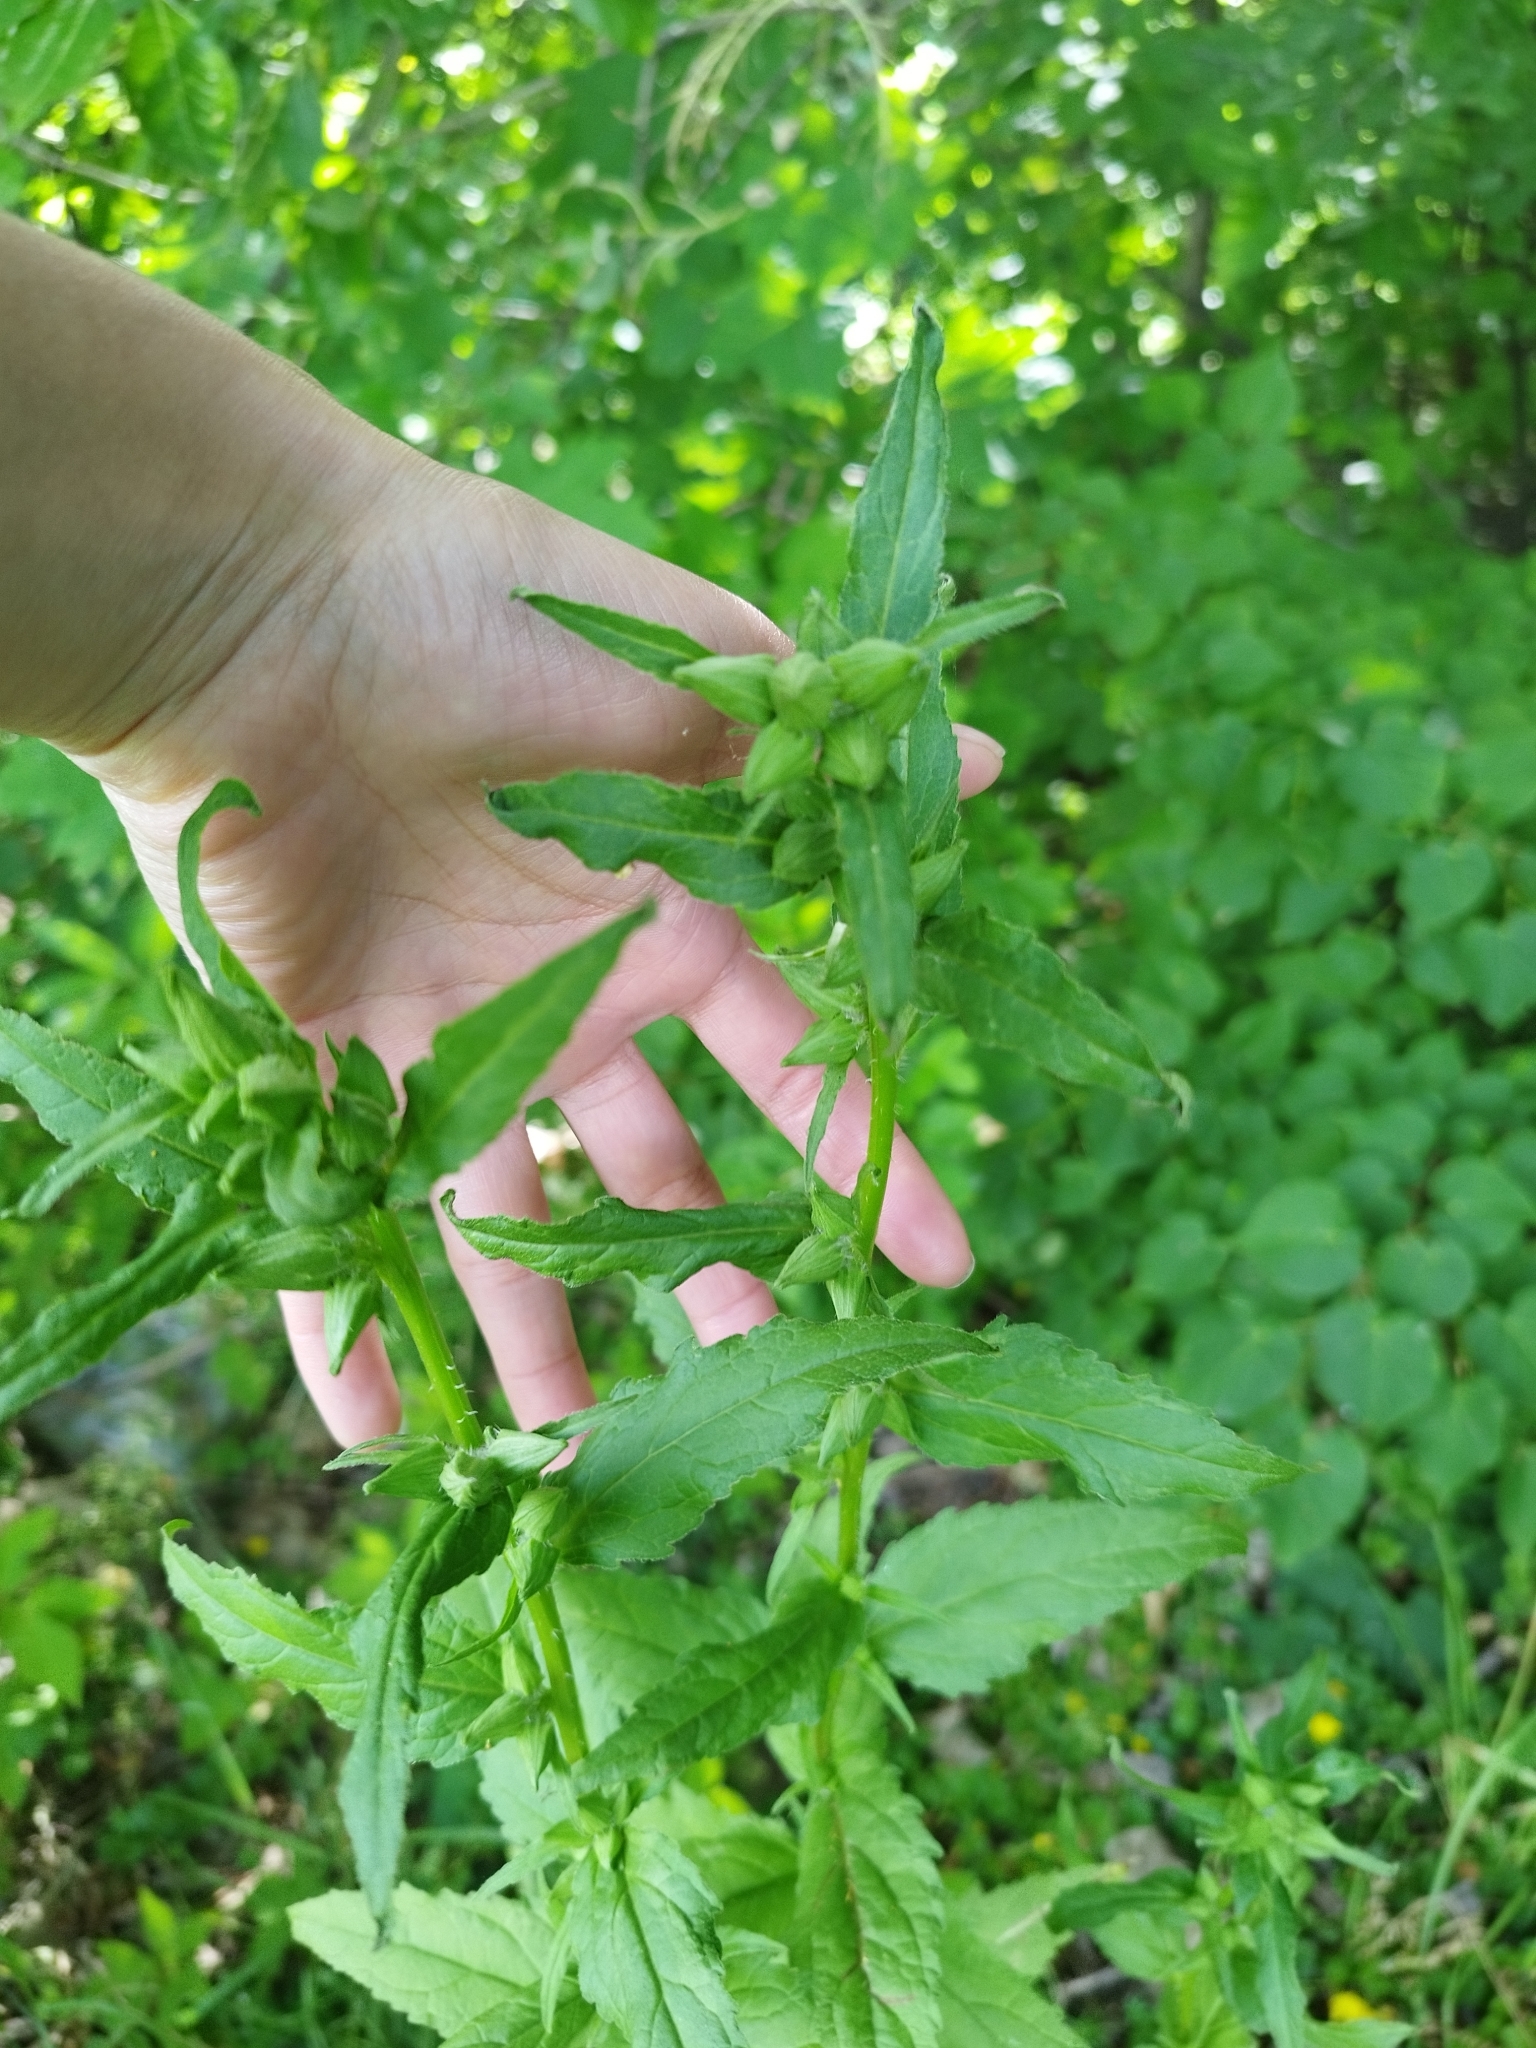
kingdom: Plantae
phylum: Tracheophyta
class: Magnoliopsida
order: Asterales
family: Campanulaceae
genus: Campanula
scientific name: Campanula trachelium
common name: Nettle-leaved bellflower
